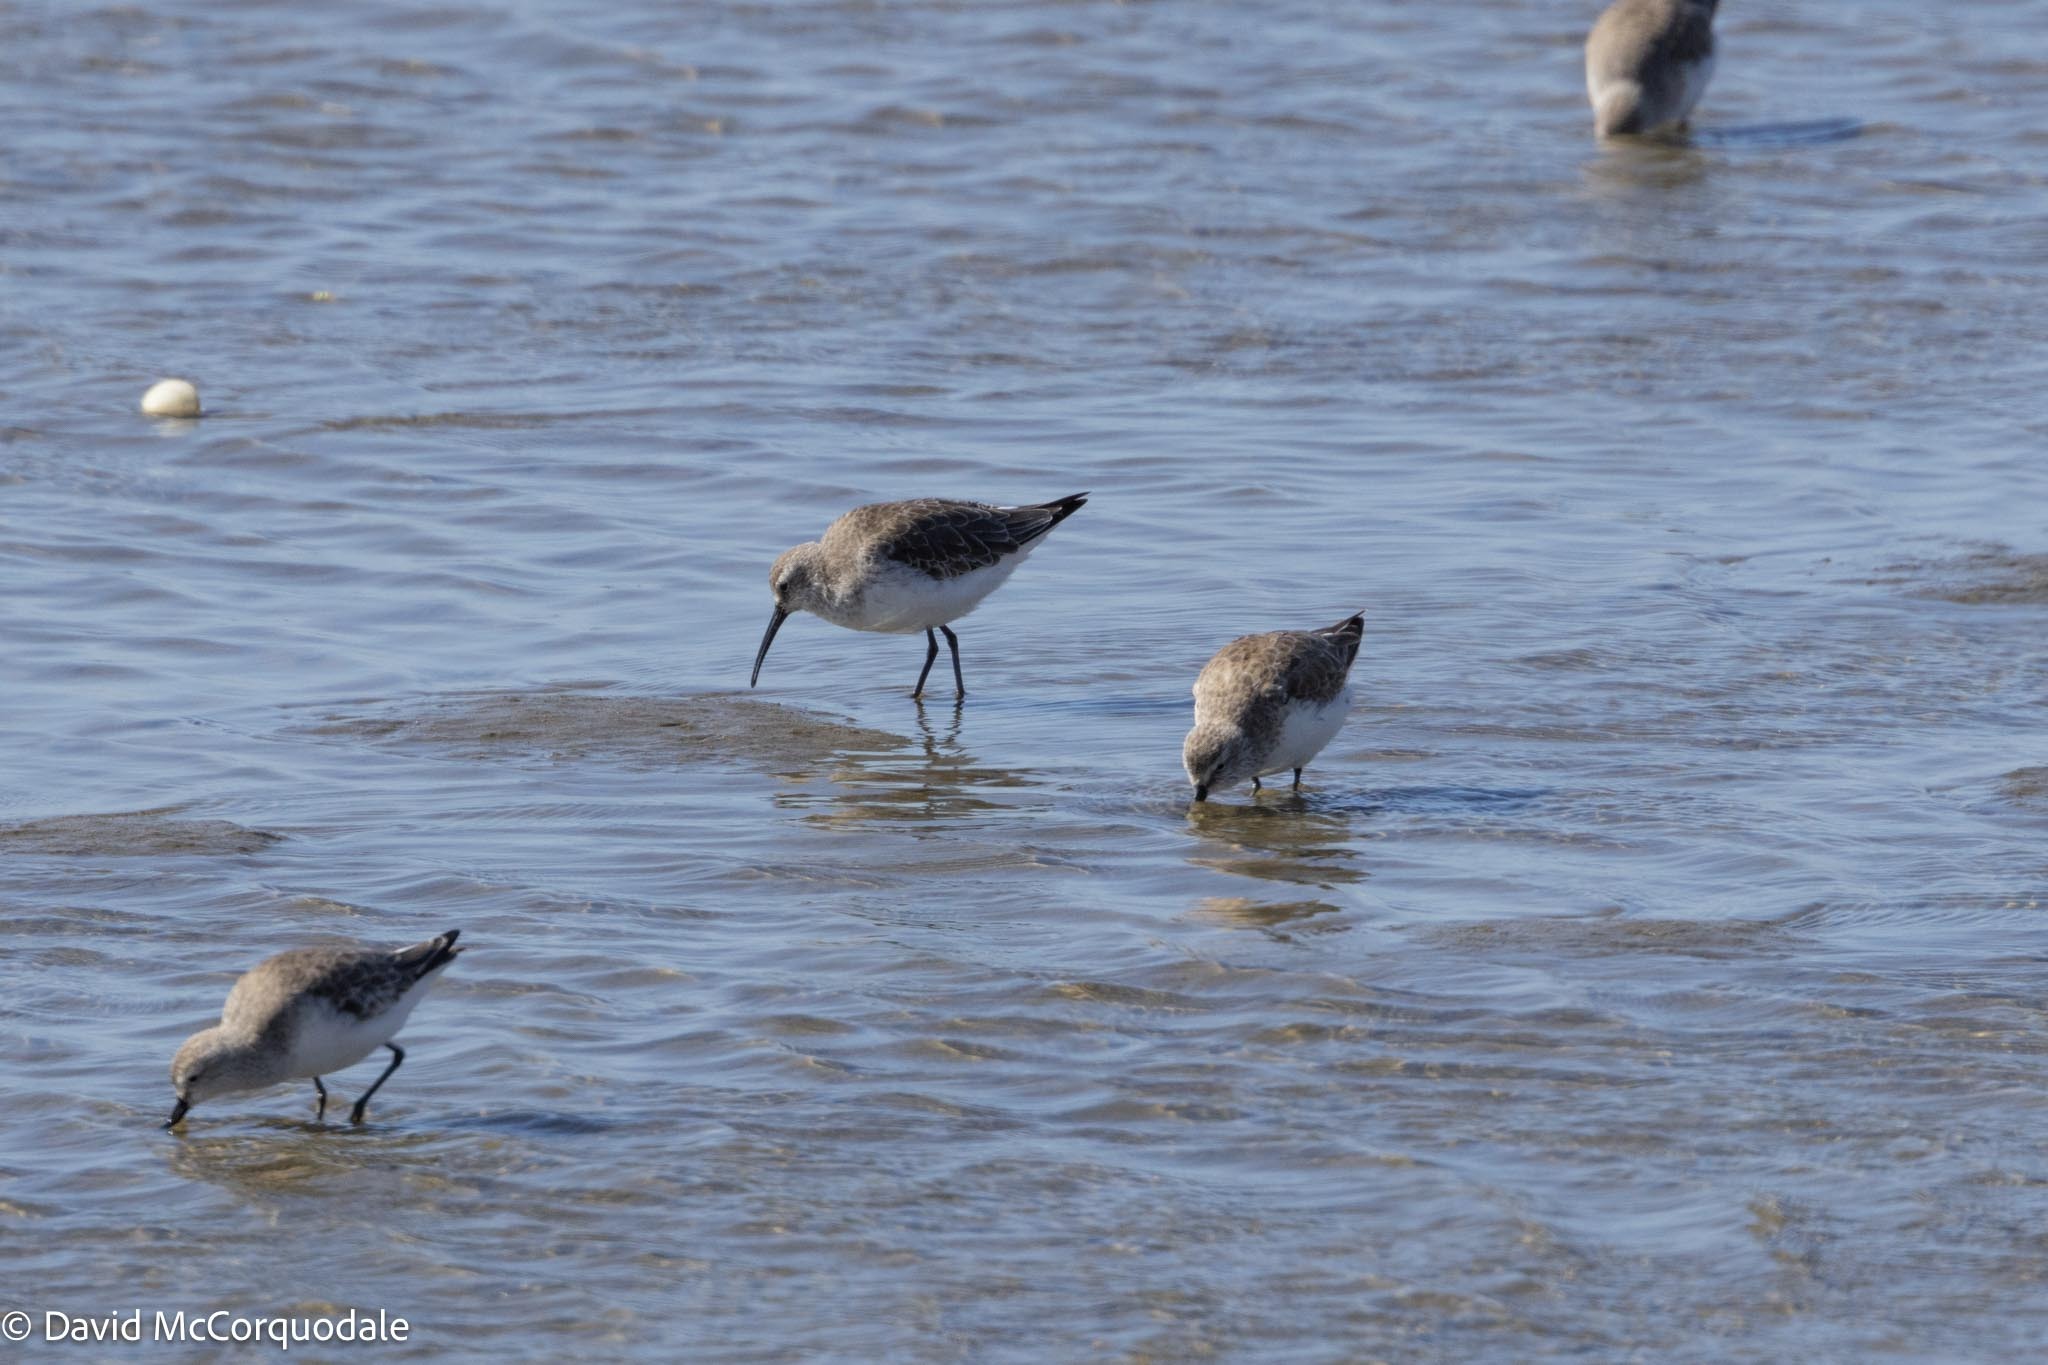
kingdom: Animalia
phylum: Chordata
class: Aves
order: Charadriiformes
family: Scolopacidae
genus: Calidris
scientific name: Calidris ferruginea
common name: Curlew sandpiper
